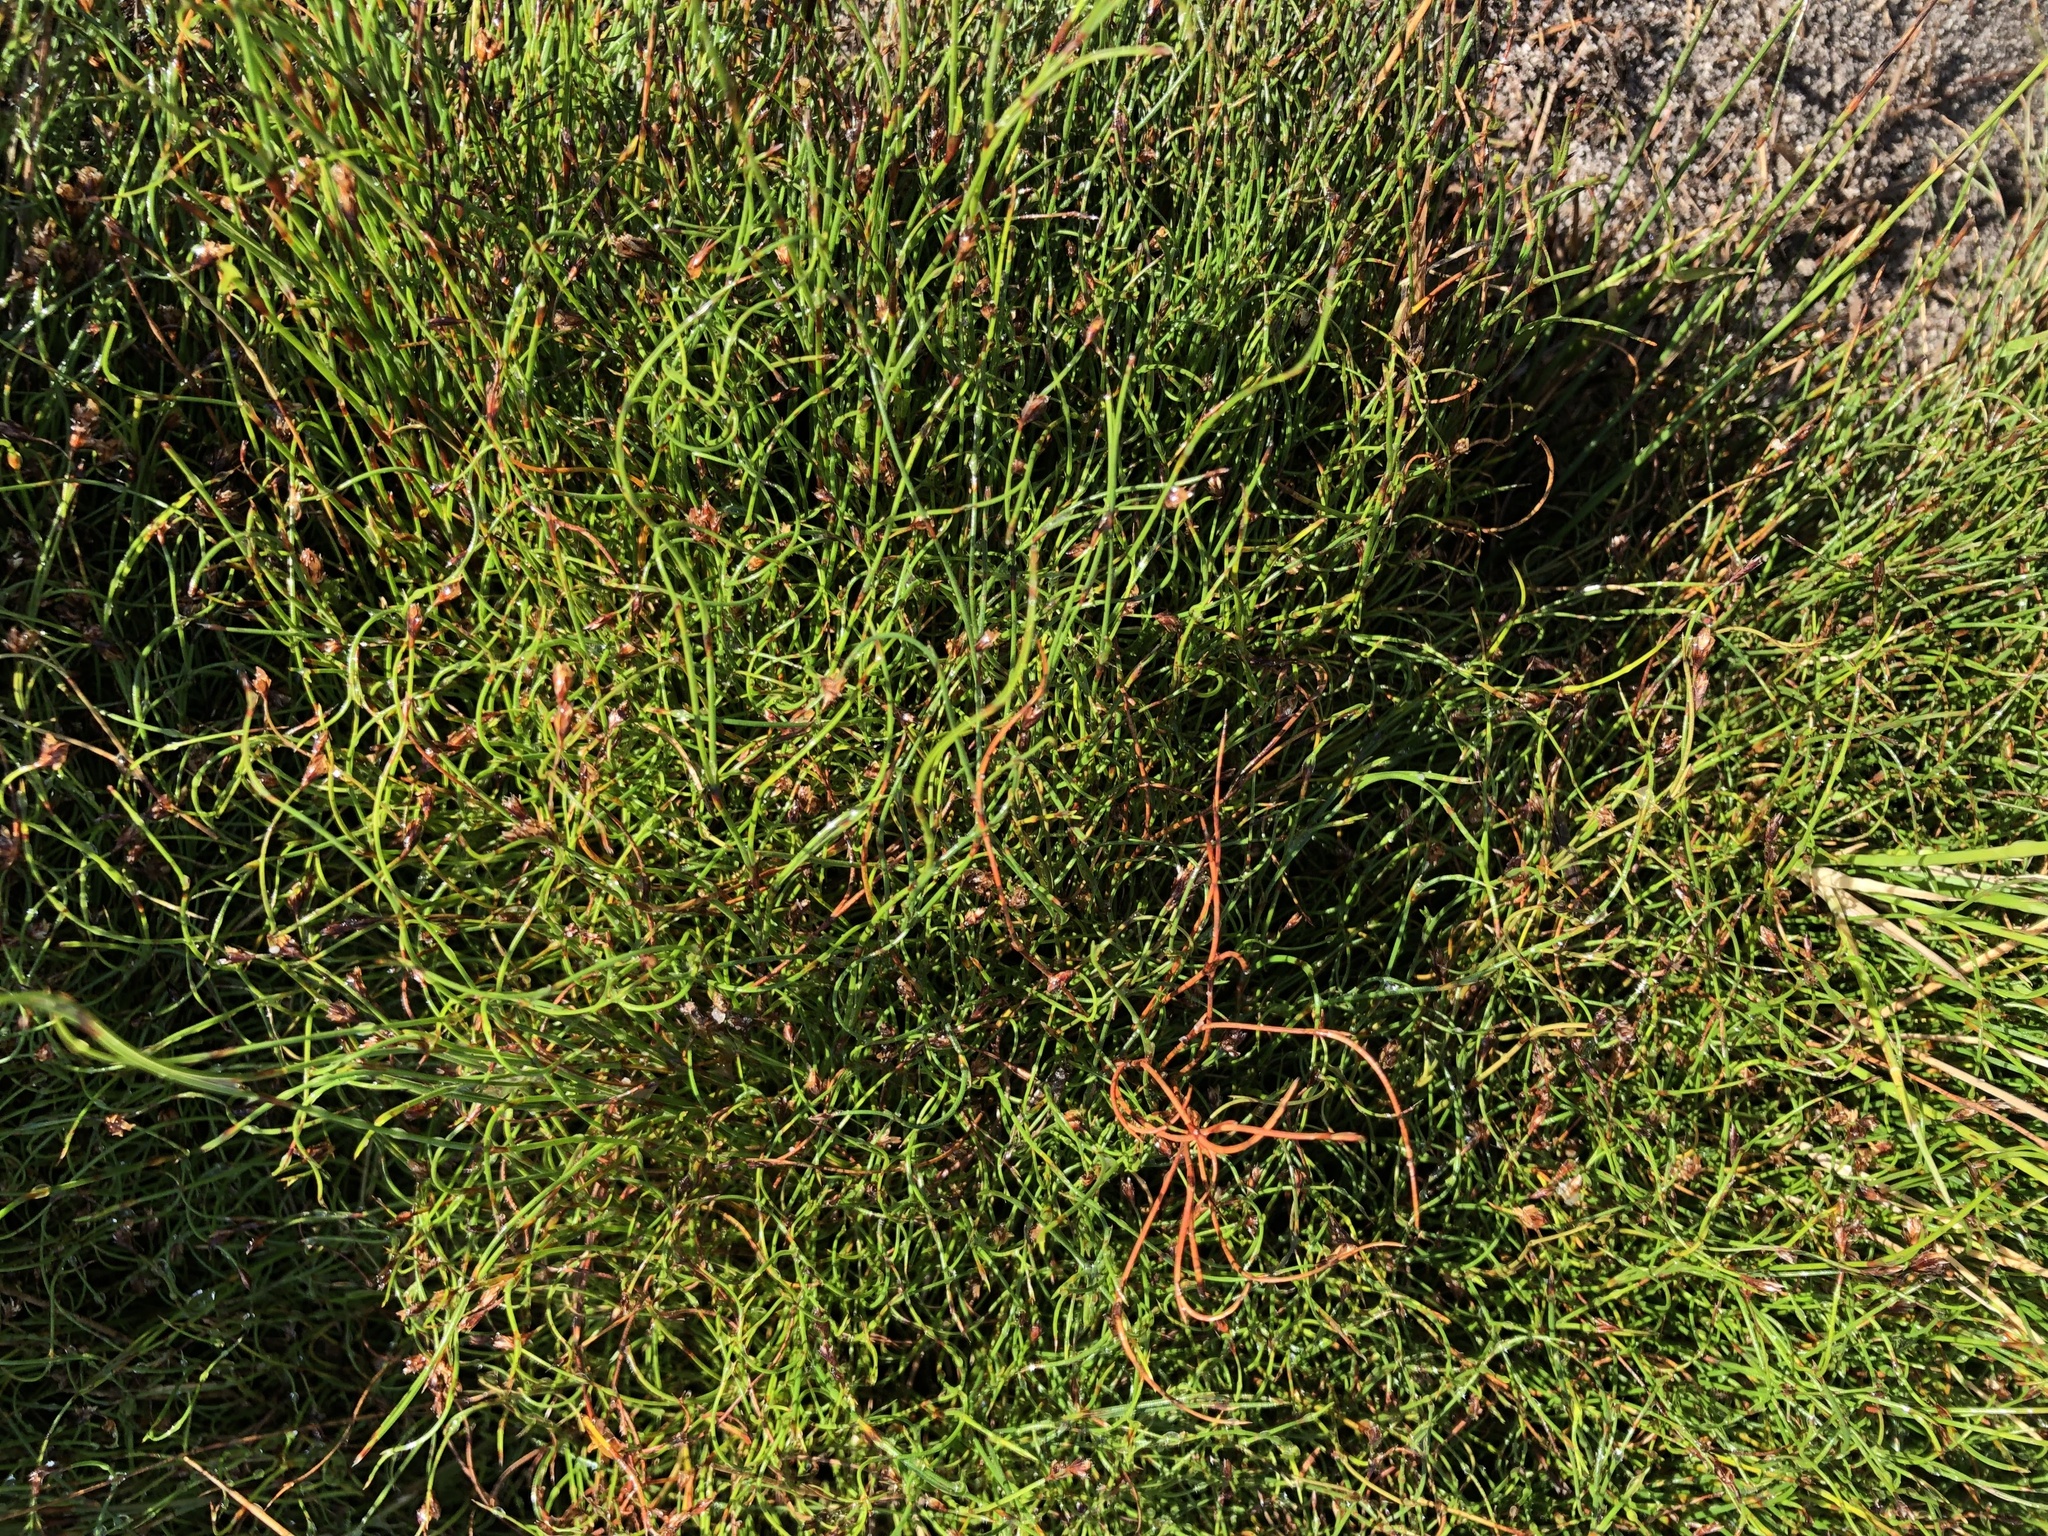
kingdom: Plantae
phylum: Tracheophyta
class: Liliopsida
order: Poales
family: Restionaceae
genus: Anthochortus
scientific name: Anthochortus crinalis
